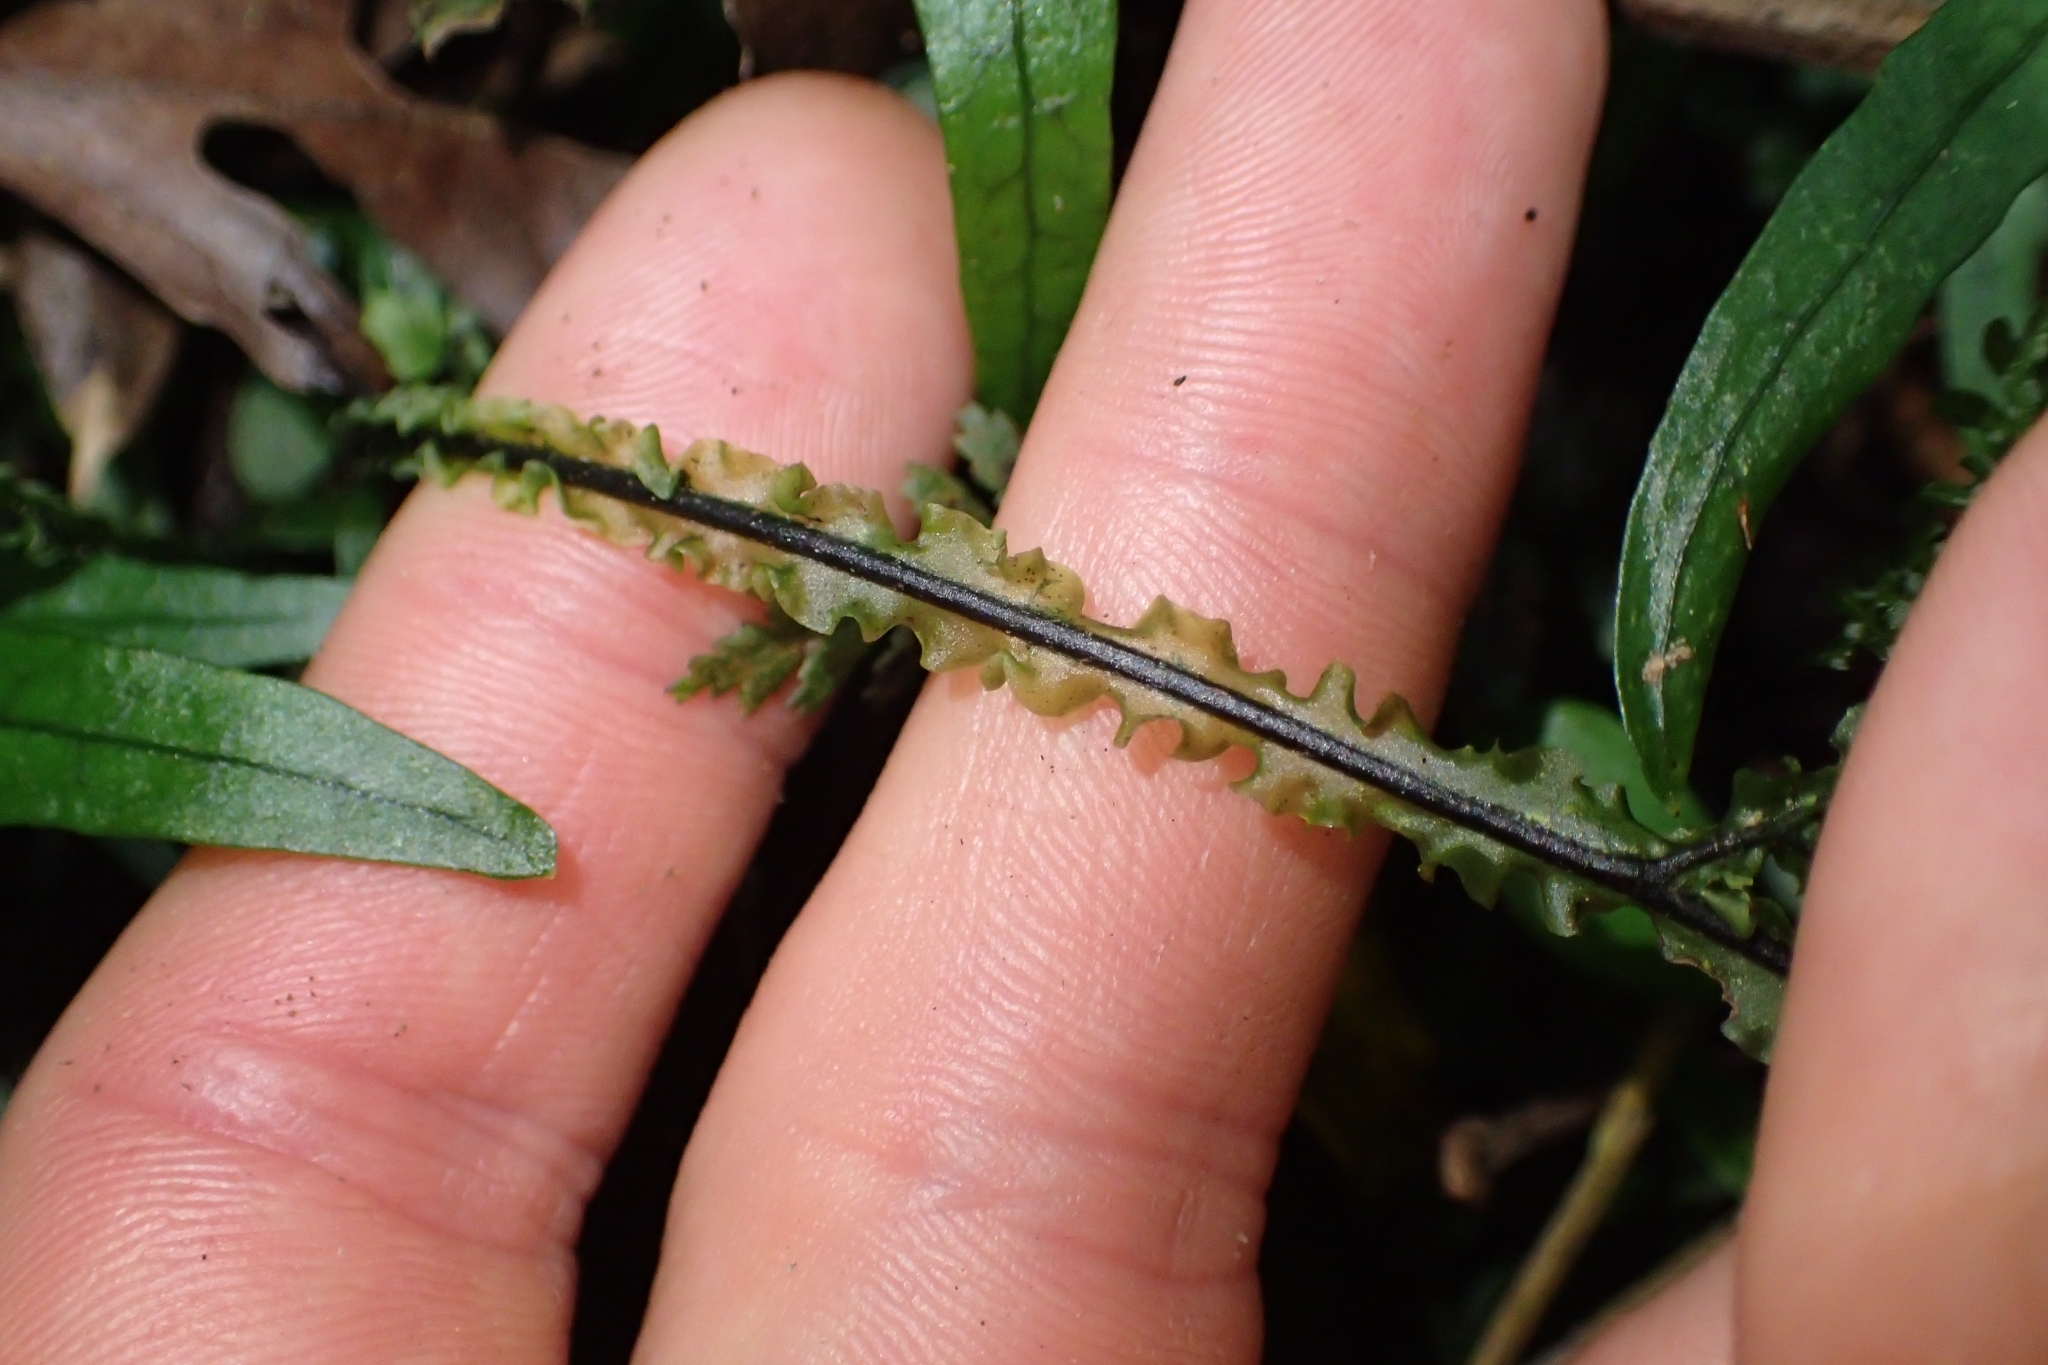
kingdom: Plantae
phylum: Tracheophyta
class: Polypodiopsida
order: Hymenophyllales
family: Hymenophyllaceae
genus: Hymenophyllum
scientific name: Hymenophyllum flexuosum
